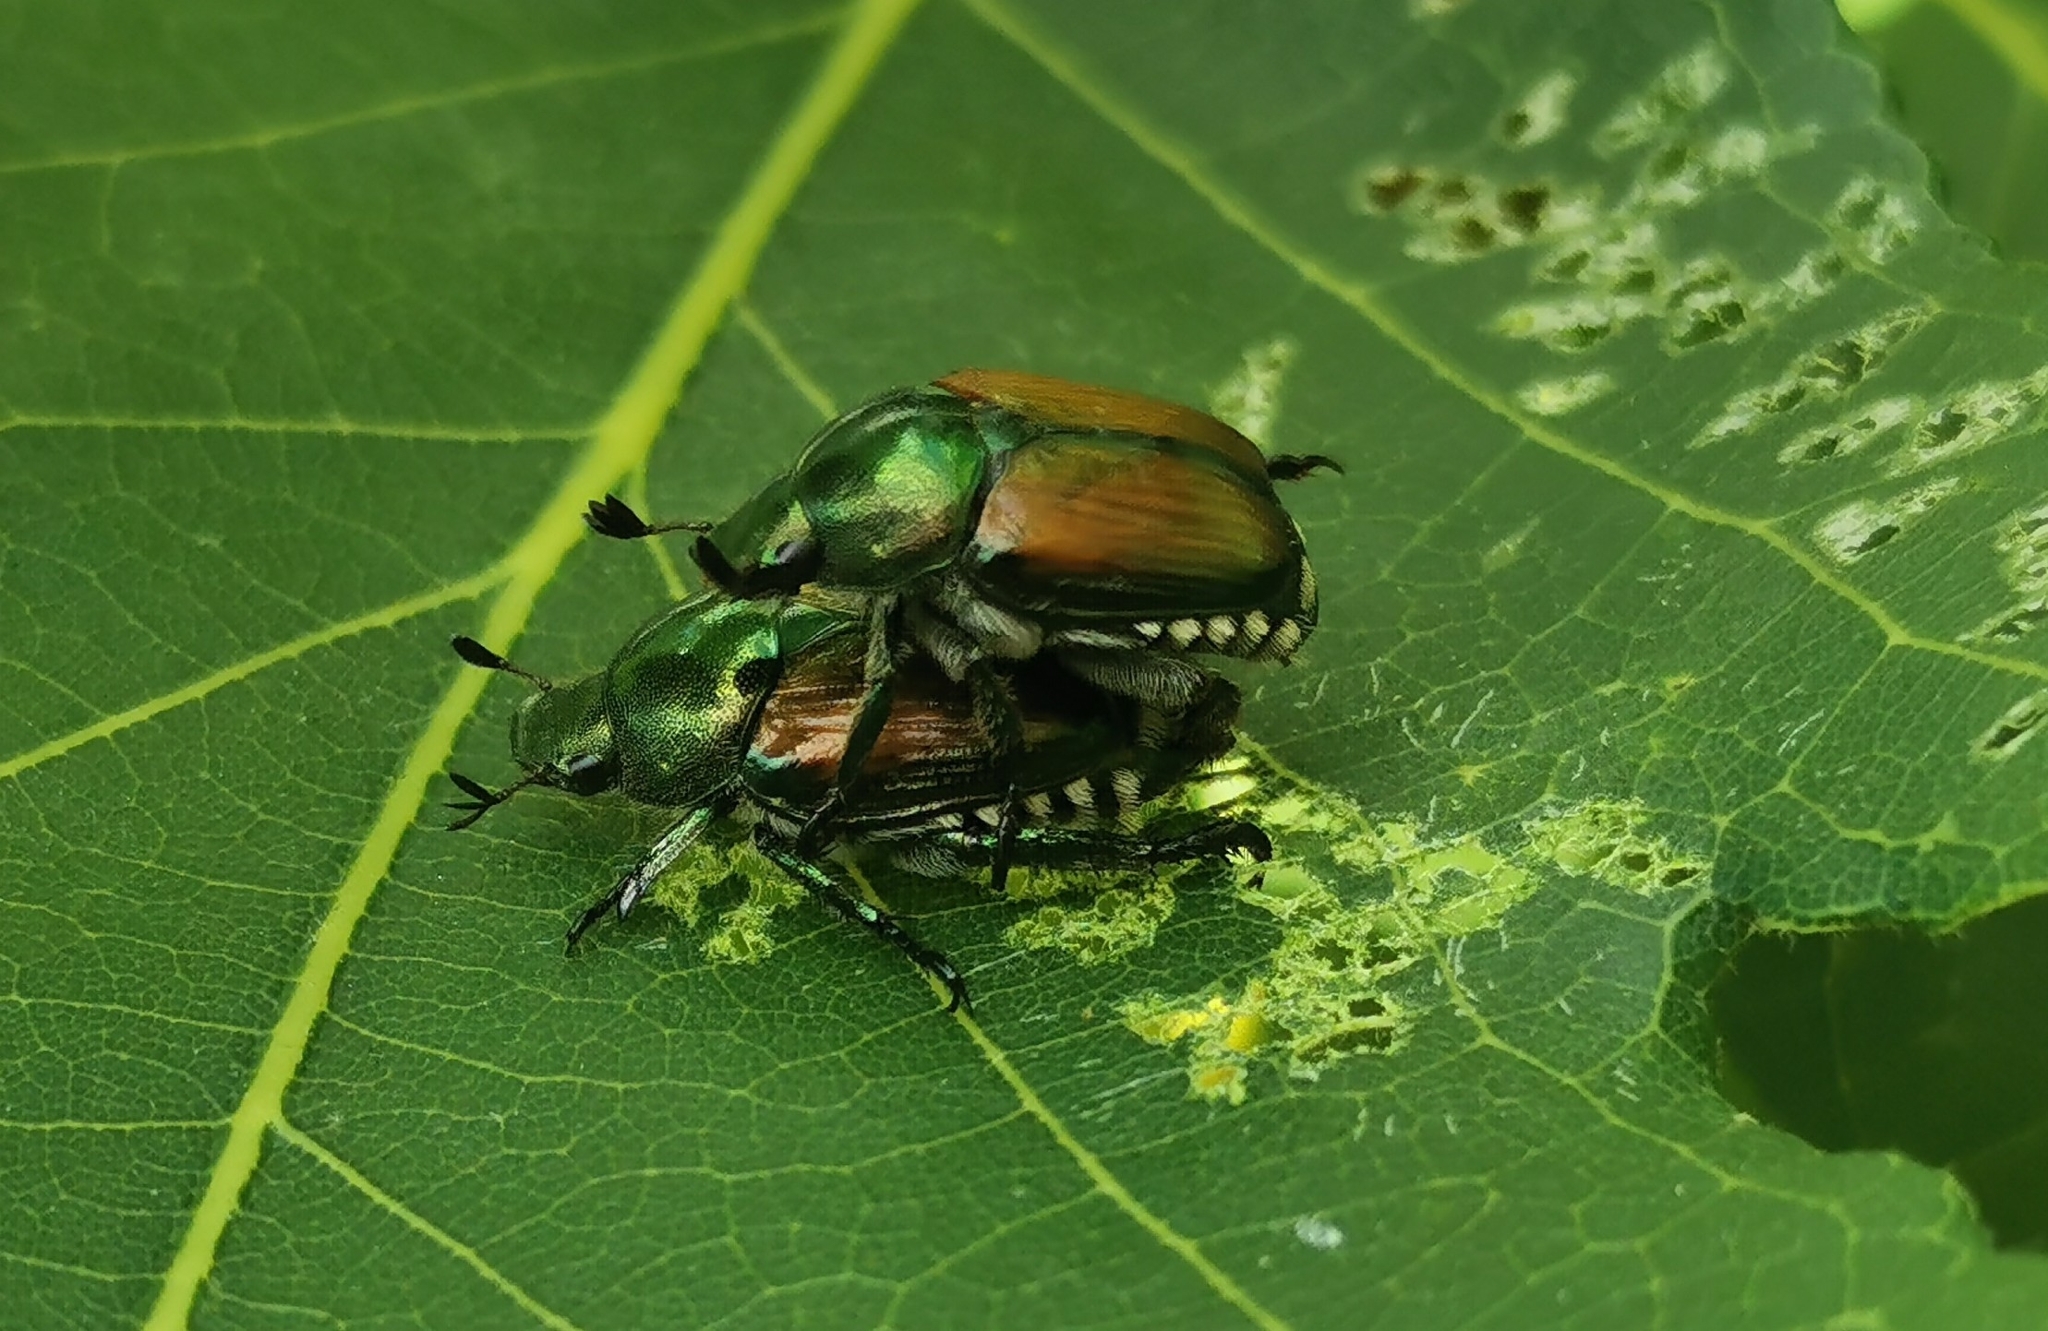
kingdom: Animalia
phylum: Arthropoda
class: Insecta
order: Coleoptera
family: Scarabaeidae
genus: Popillia
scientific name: Popillia japonica
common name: Japanese beetle
